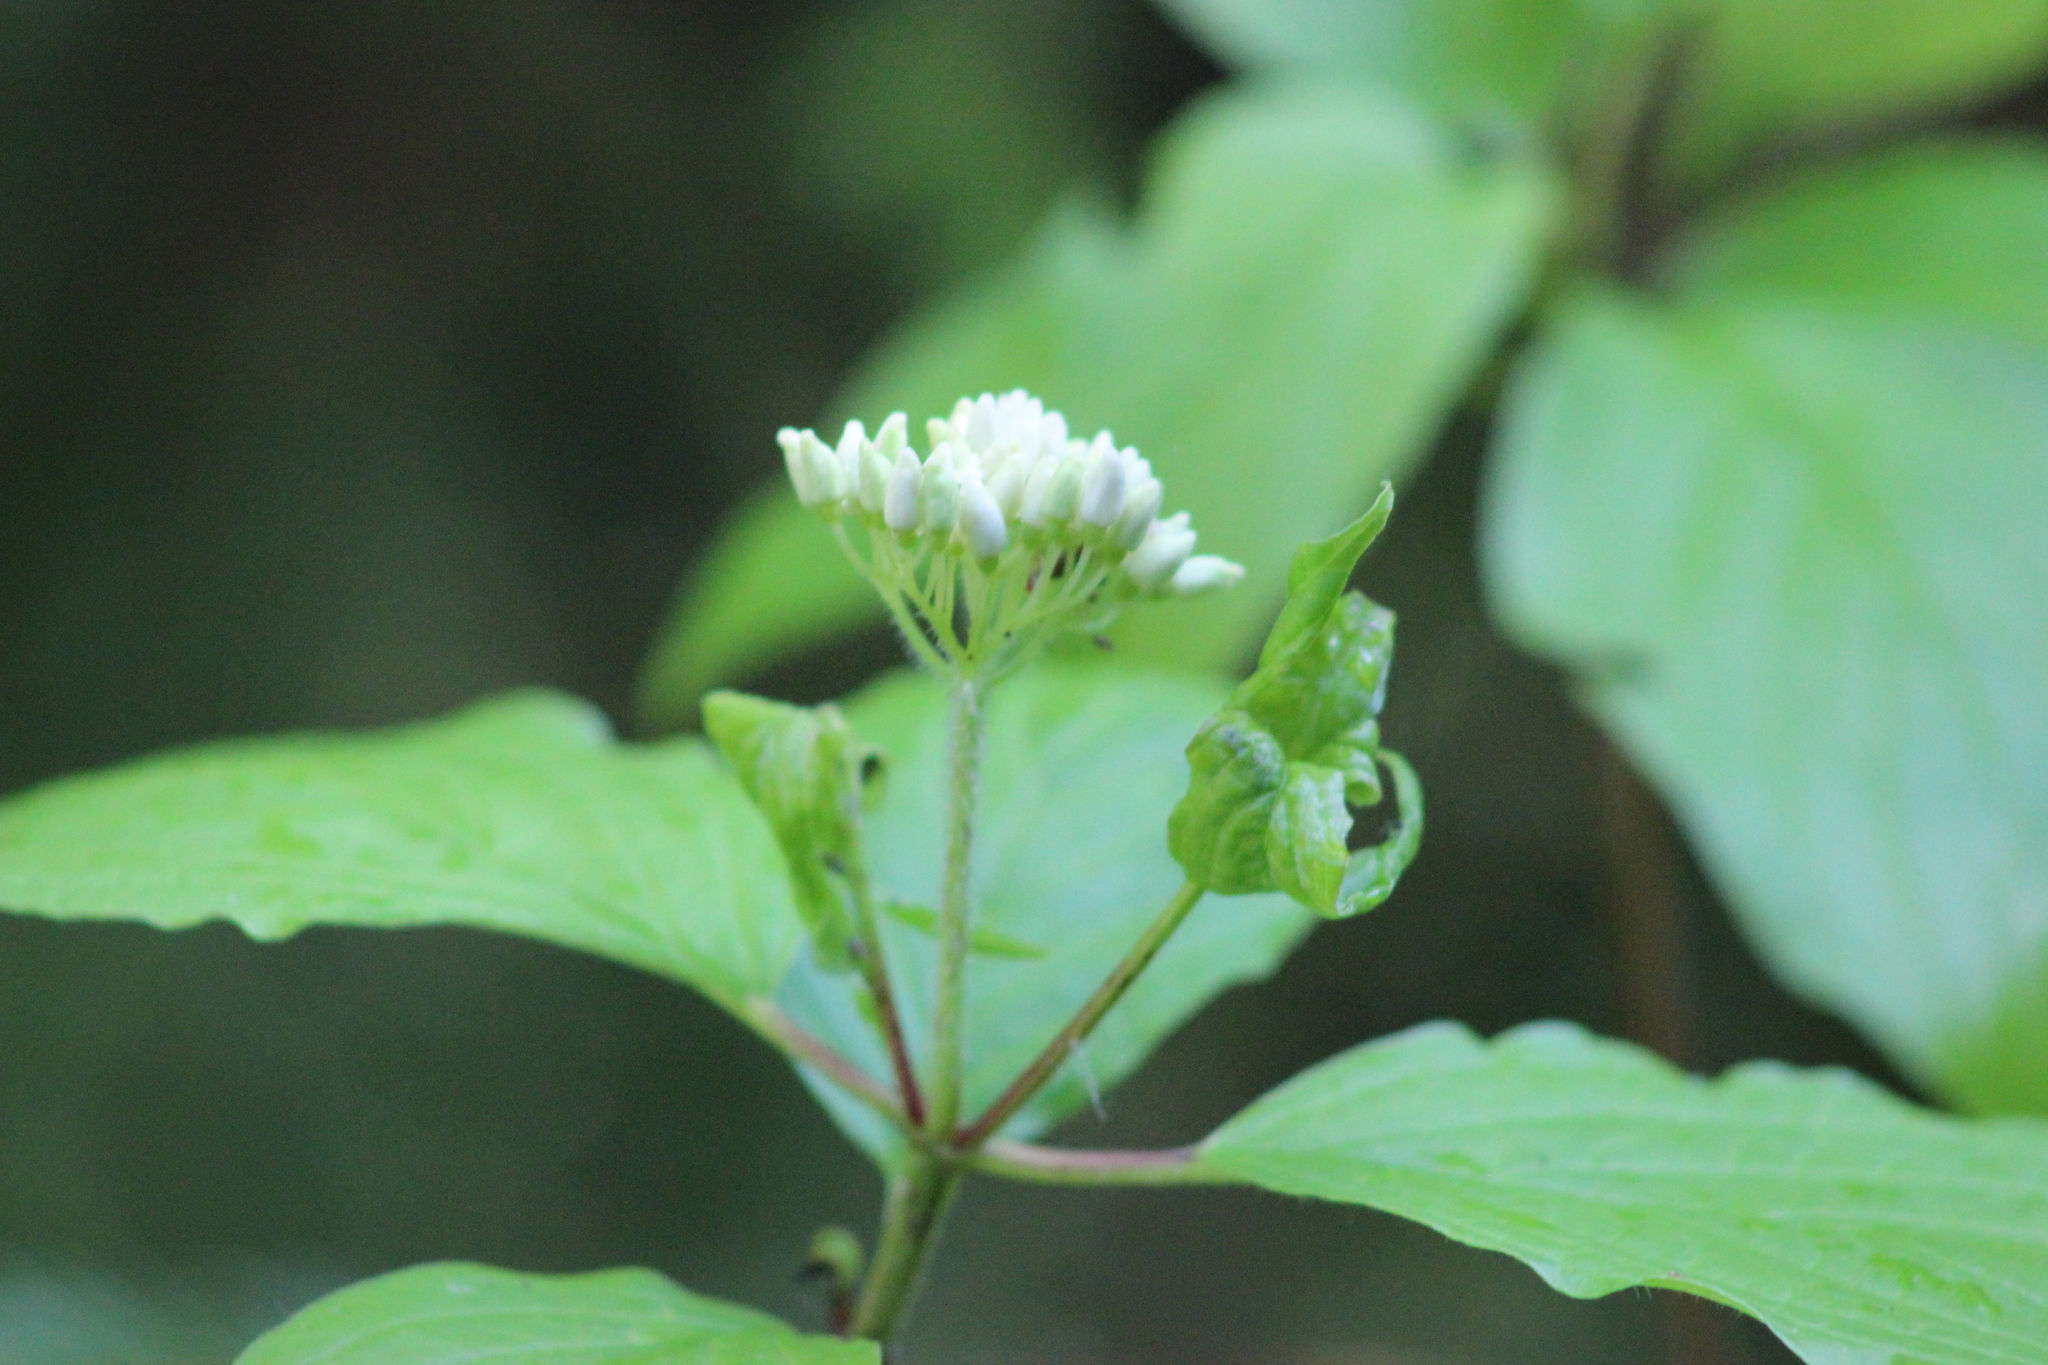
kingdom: Plantae
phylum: Tracheophyta
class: Magnoliopsida
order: Cornales
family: Cornaceae
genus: Cornus
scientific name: Cornus alba
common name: White dogwood
